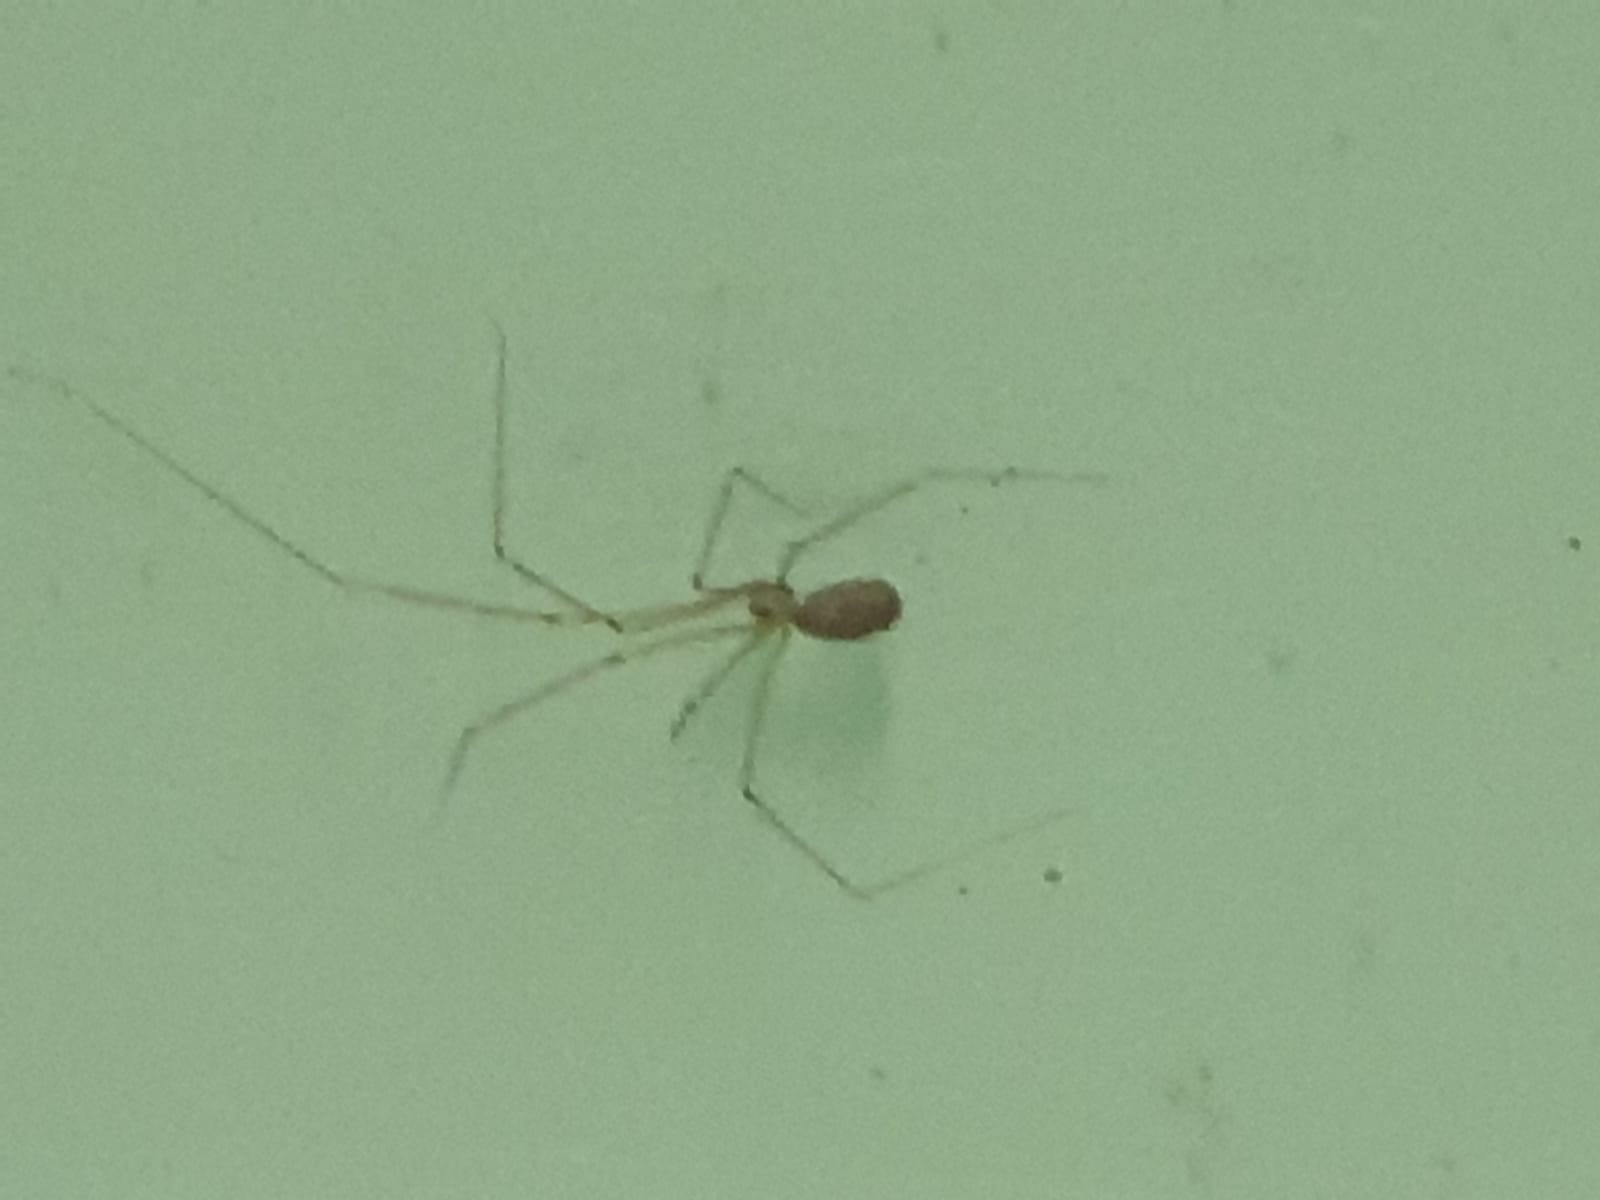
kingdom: Animalia
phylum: Arthropoda
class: Arachnida
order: Araneae
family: Pholcidae
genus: Pholcus
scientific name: Pholcus phalangioides
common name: Longbodied cellar spider
